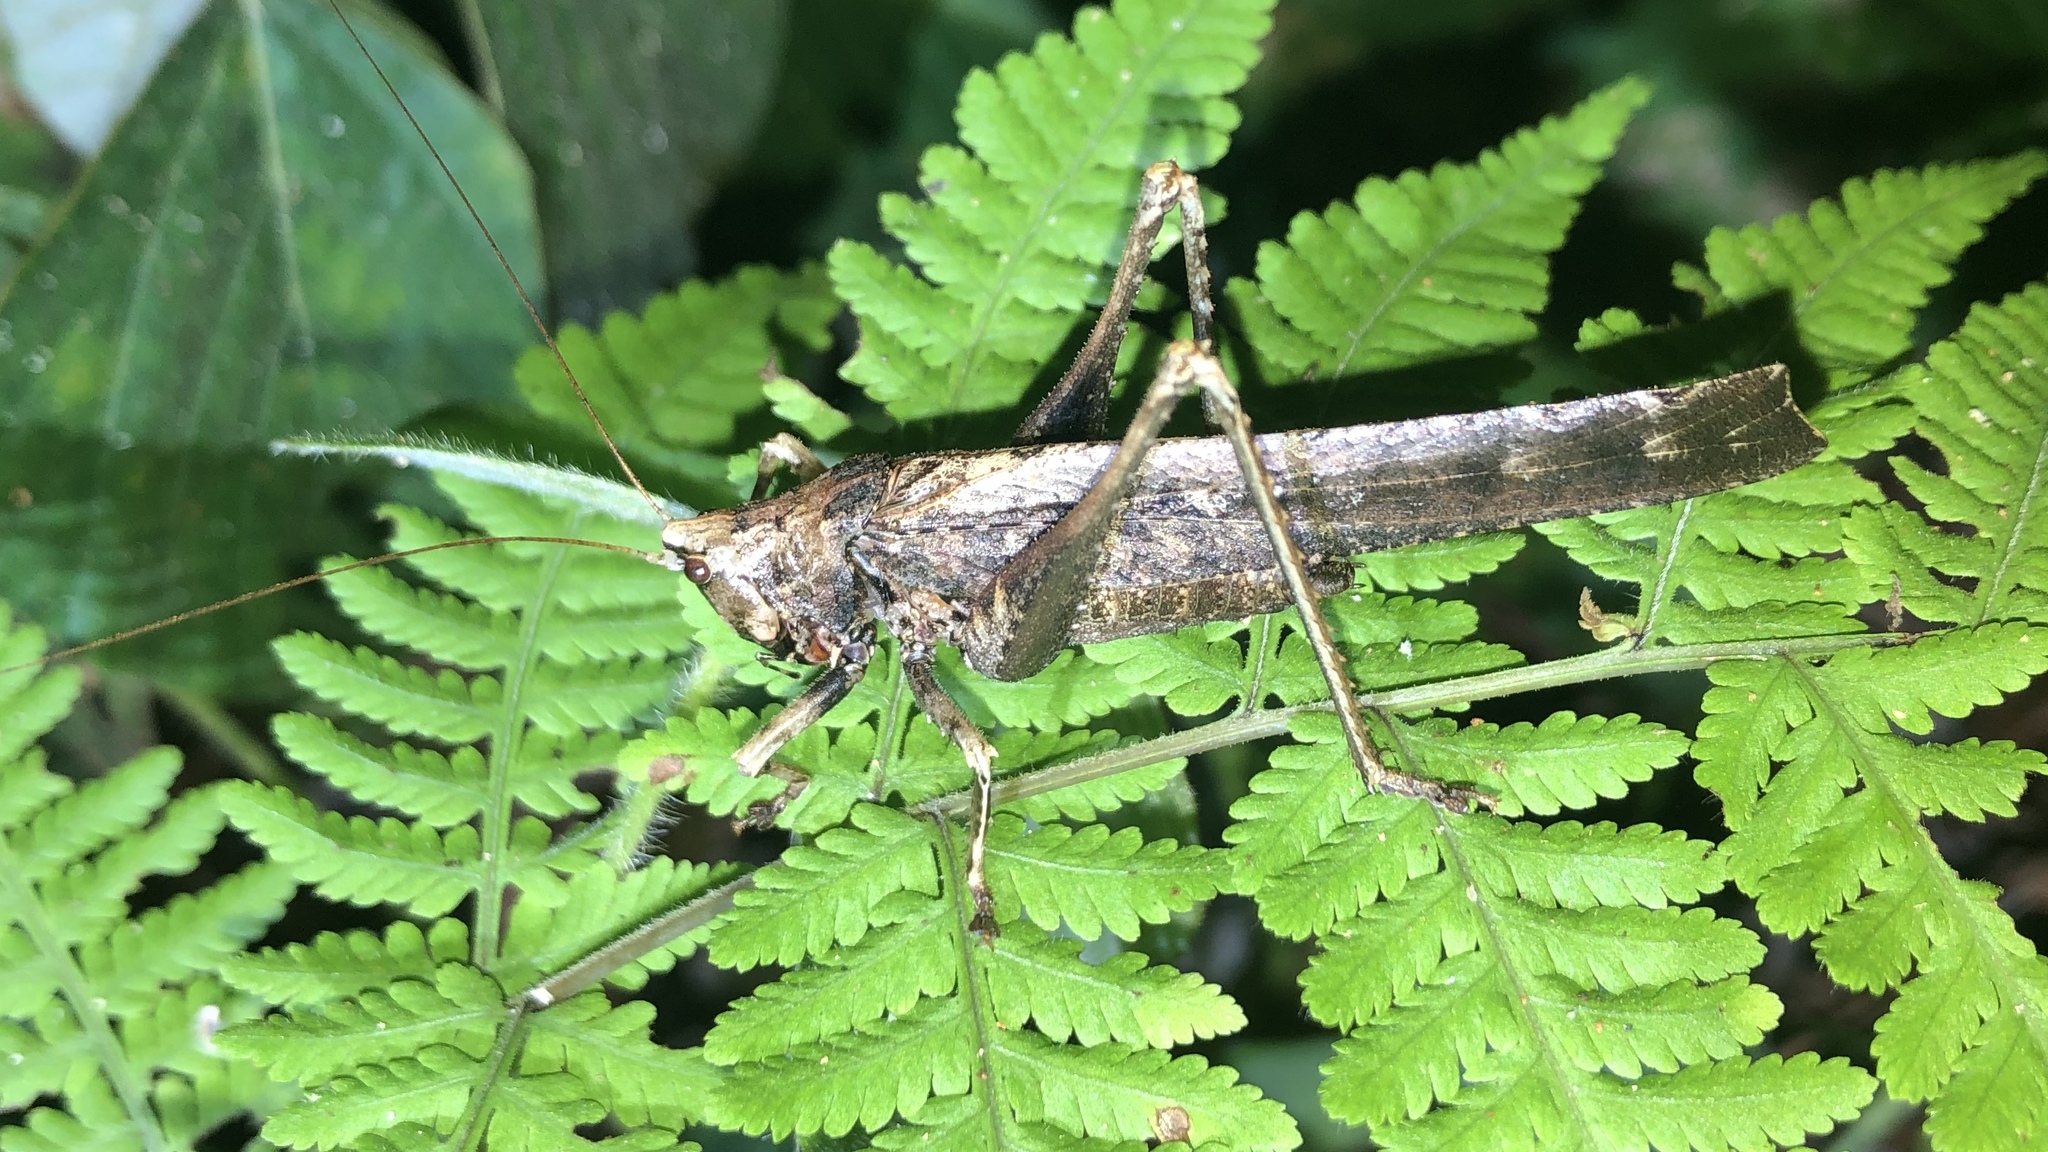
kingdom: Animalia
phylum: Arthropoda
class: Insecta
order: Orthoptera
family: Tettigoniidae
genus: Eppia
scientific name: Eppia truncatipennis
